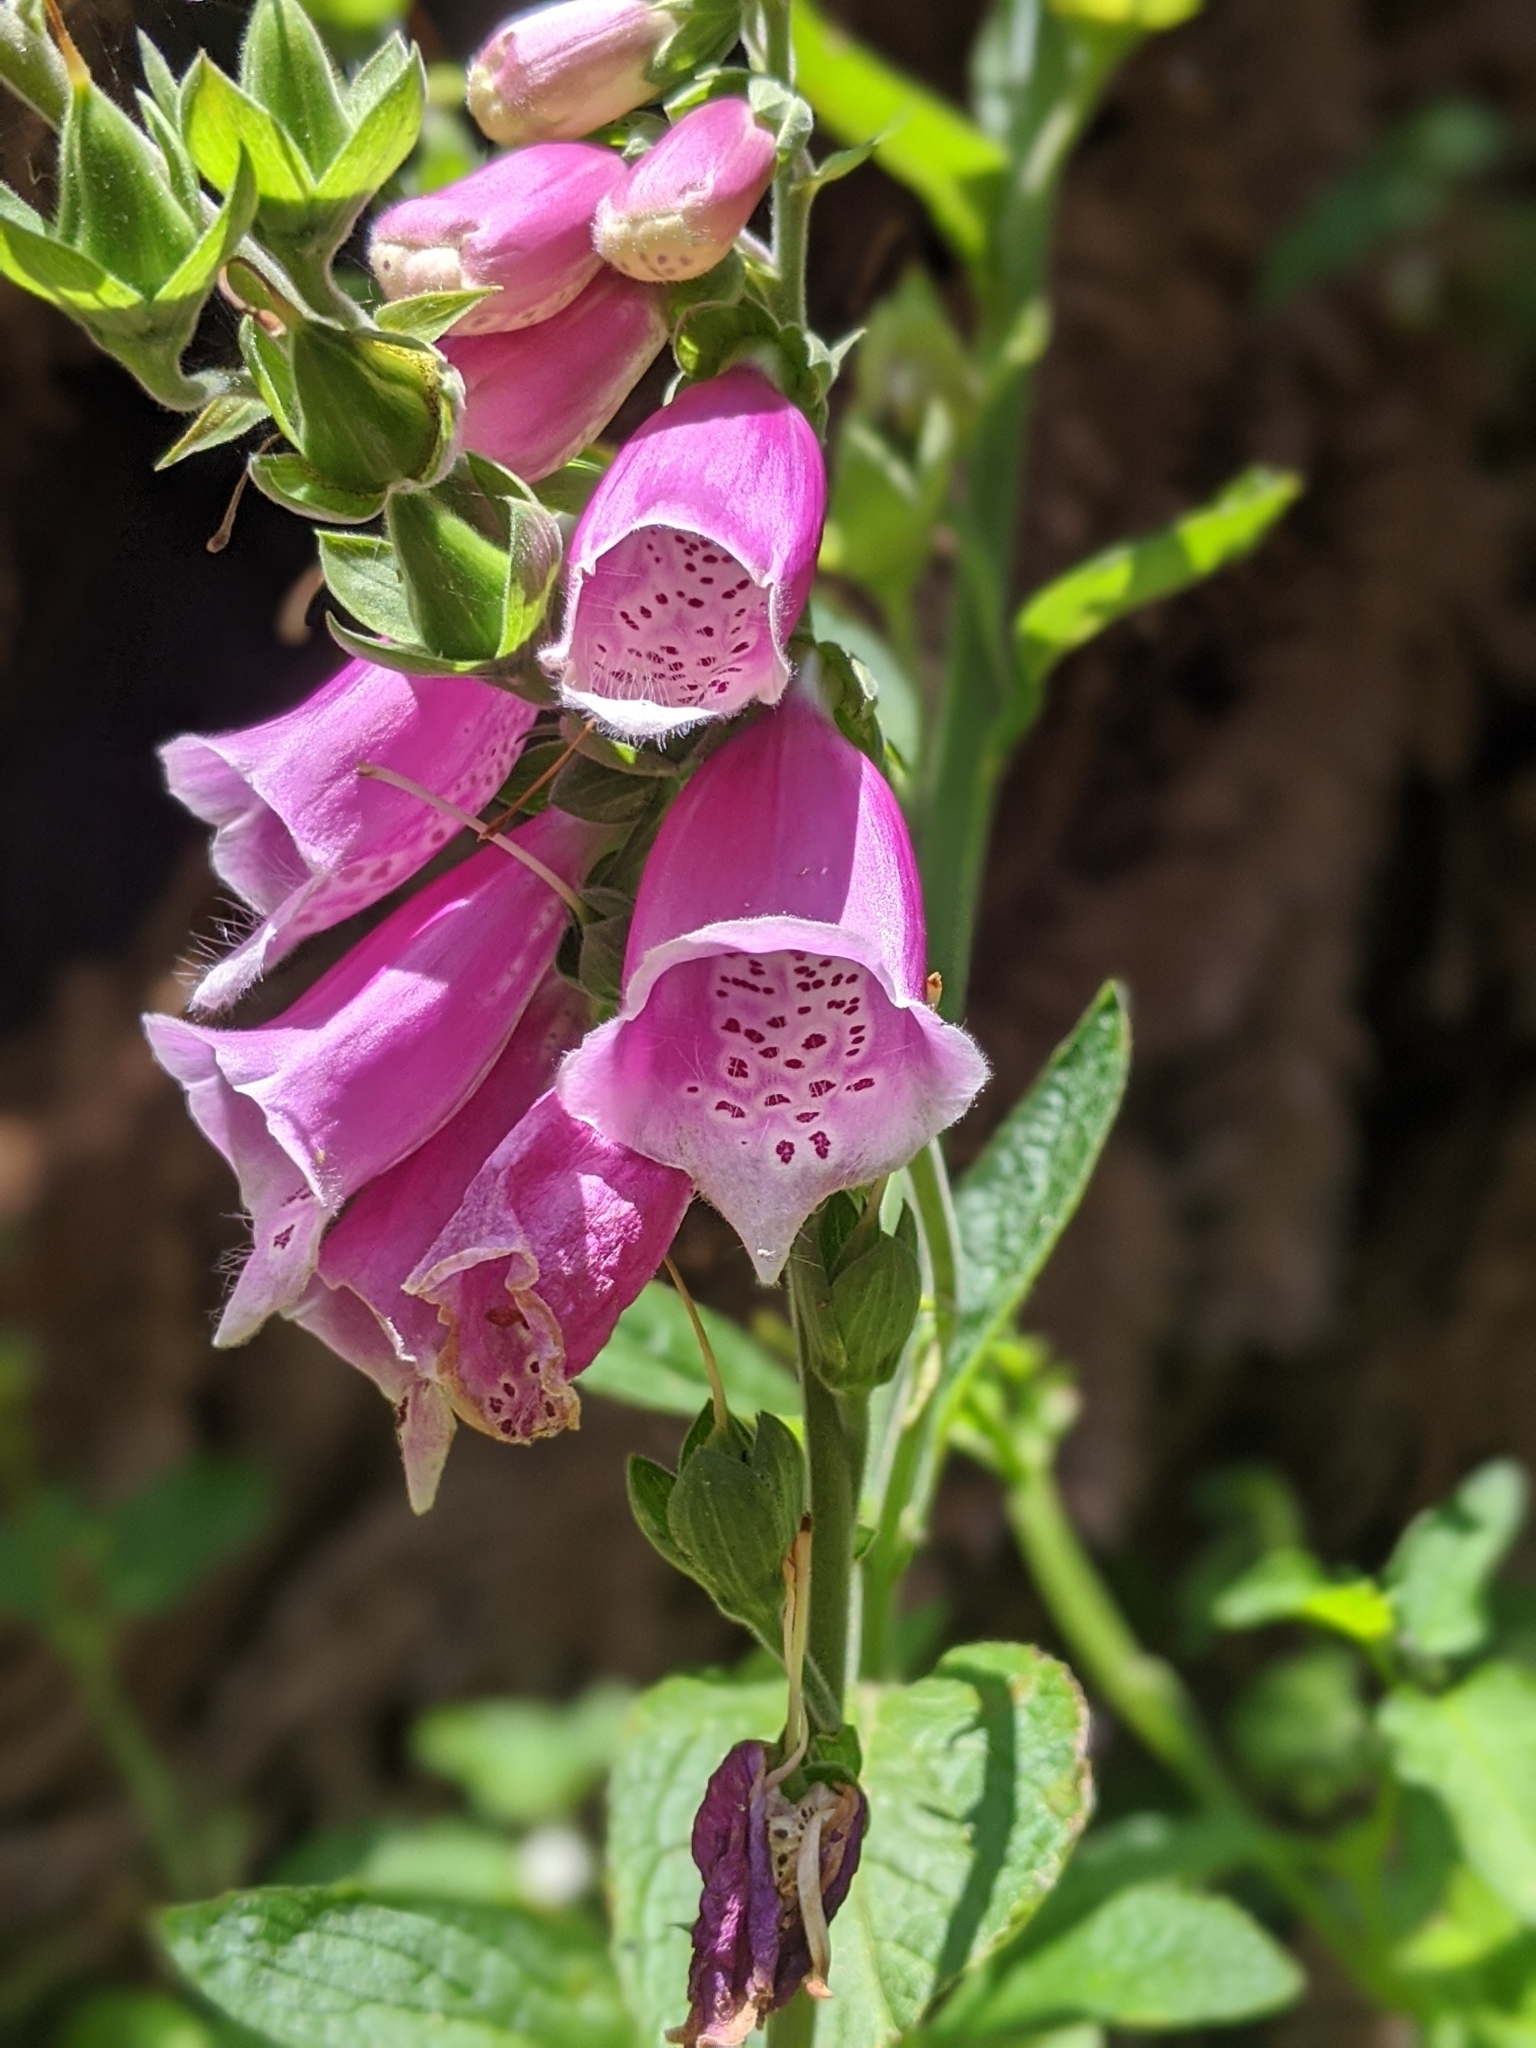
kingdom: Plantae
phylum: Tracheophyta
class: Magnoliopsida
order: Lamiales
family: Plantaginaceae
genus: Digitalis
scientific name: Digitalis purpurea
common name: Foxglove
